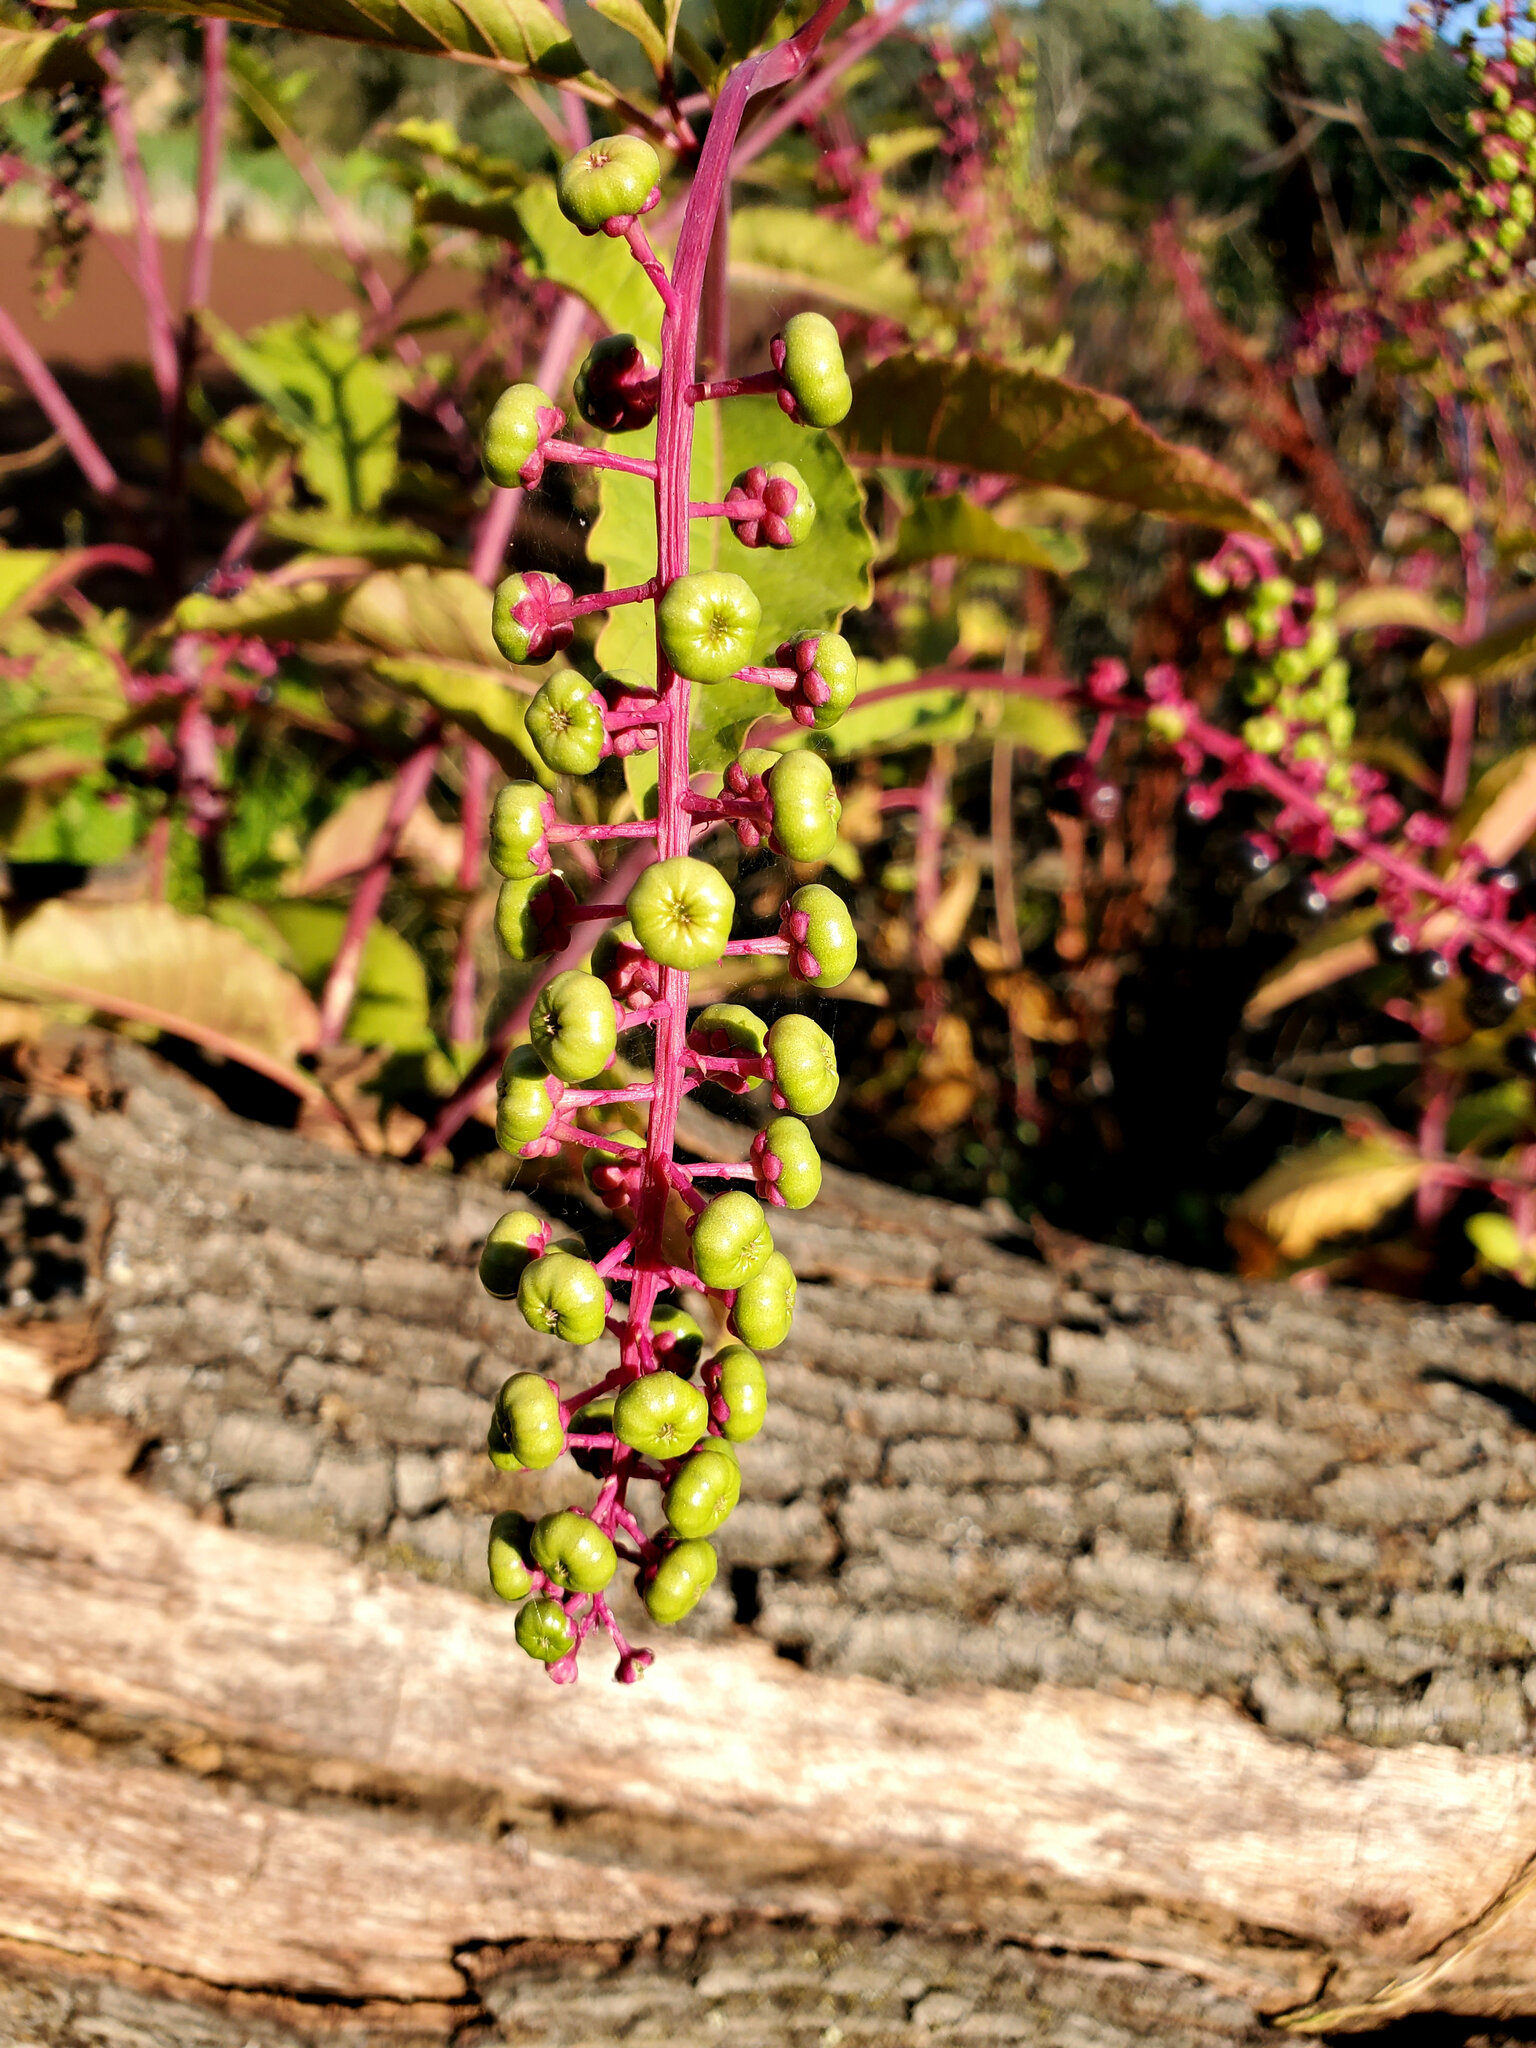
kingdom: Plantae
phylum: Tracheophyta
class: Magnoliopsida
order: Caryophyllales
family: Phytolaccaceae
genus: Phytolacca
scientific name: Phytolacca americana
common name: American pokeweed
